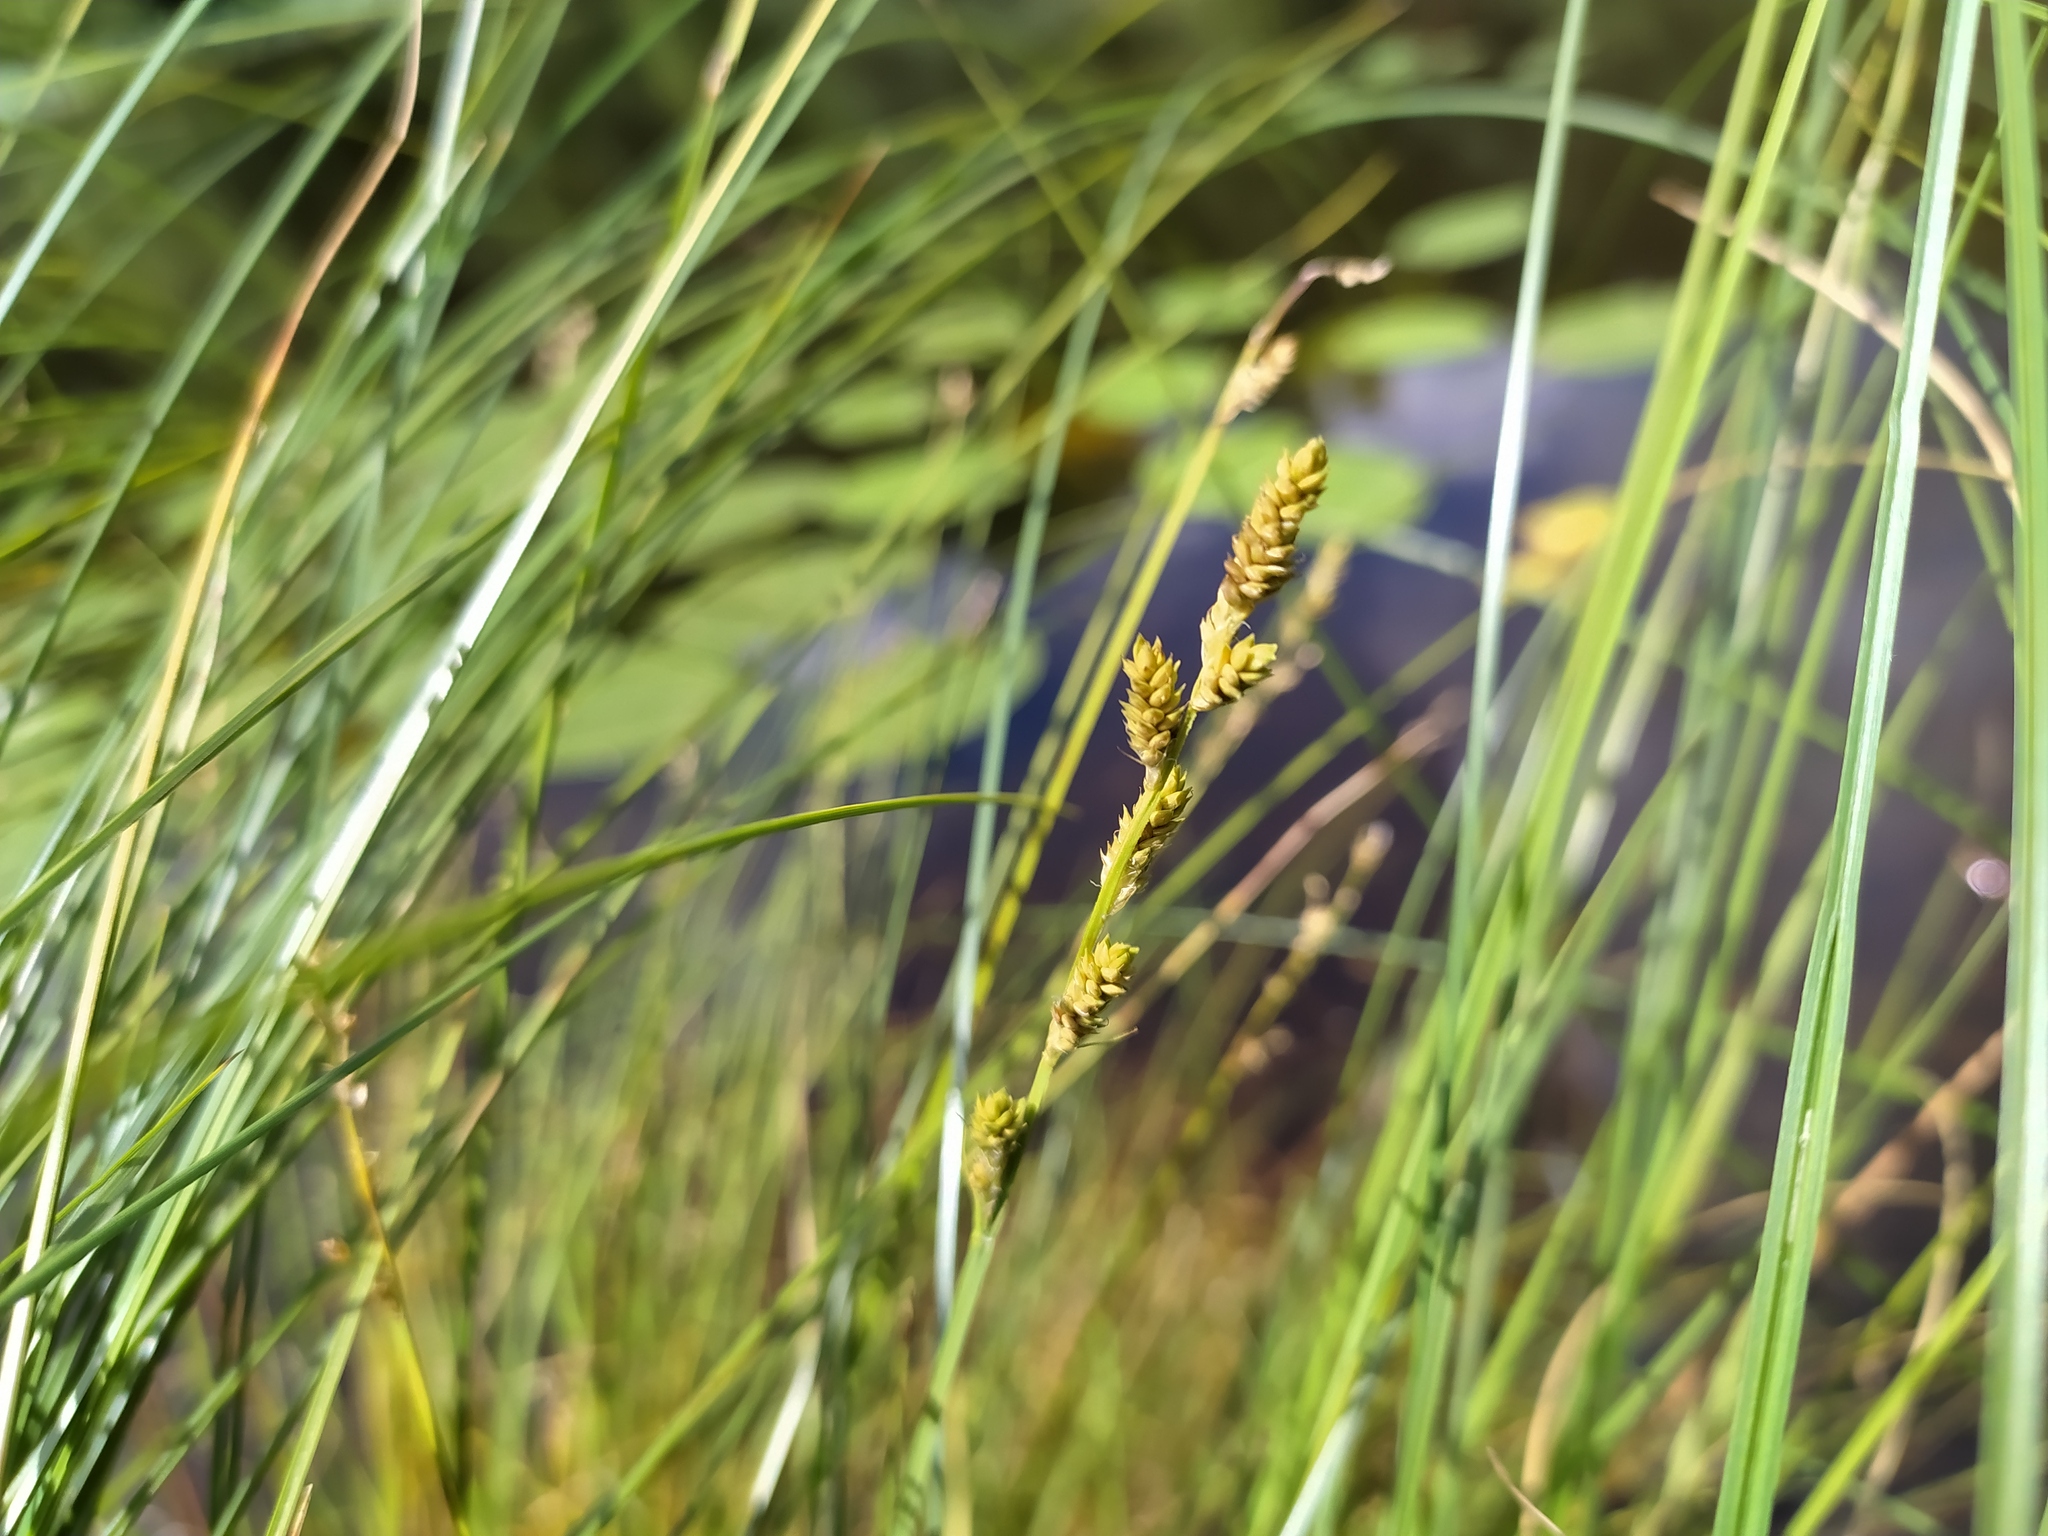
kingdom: Plantae
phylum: Tracheophyta
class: Liliopsida
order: Poales
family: Cyperaceae
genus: Carex
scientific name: Carex canescens
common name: White sedge
